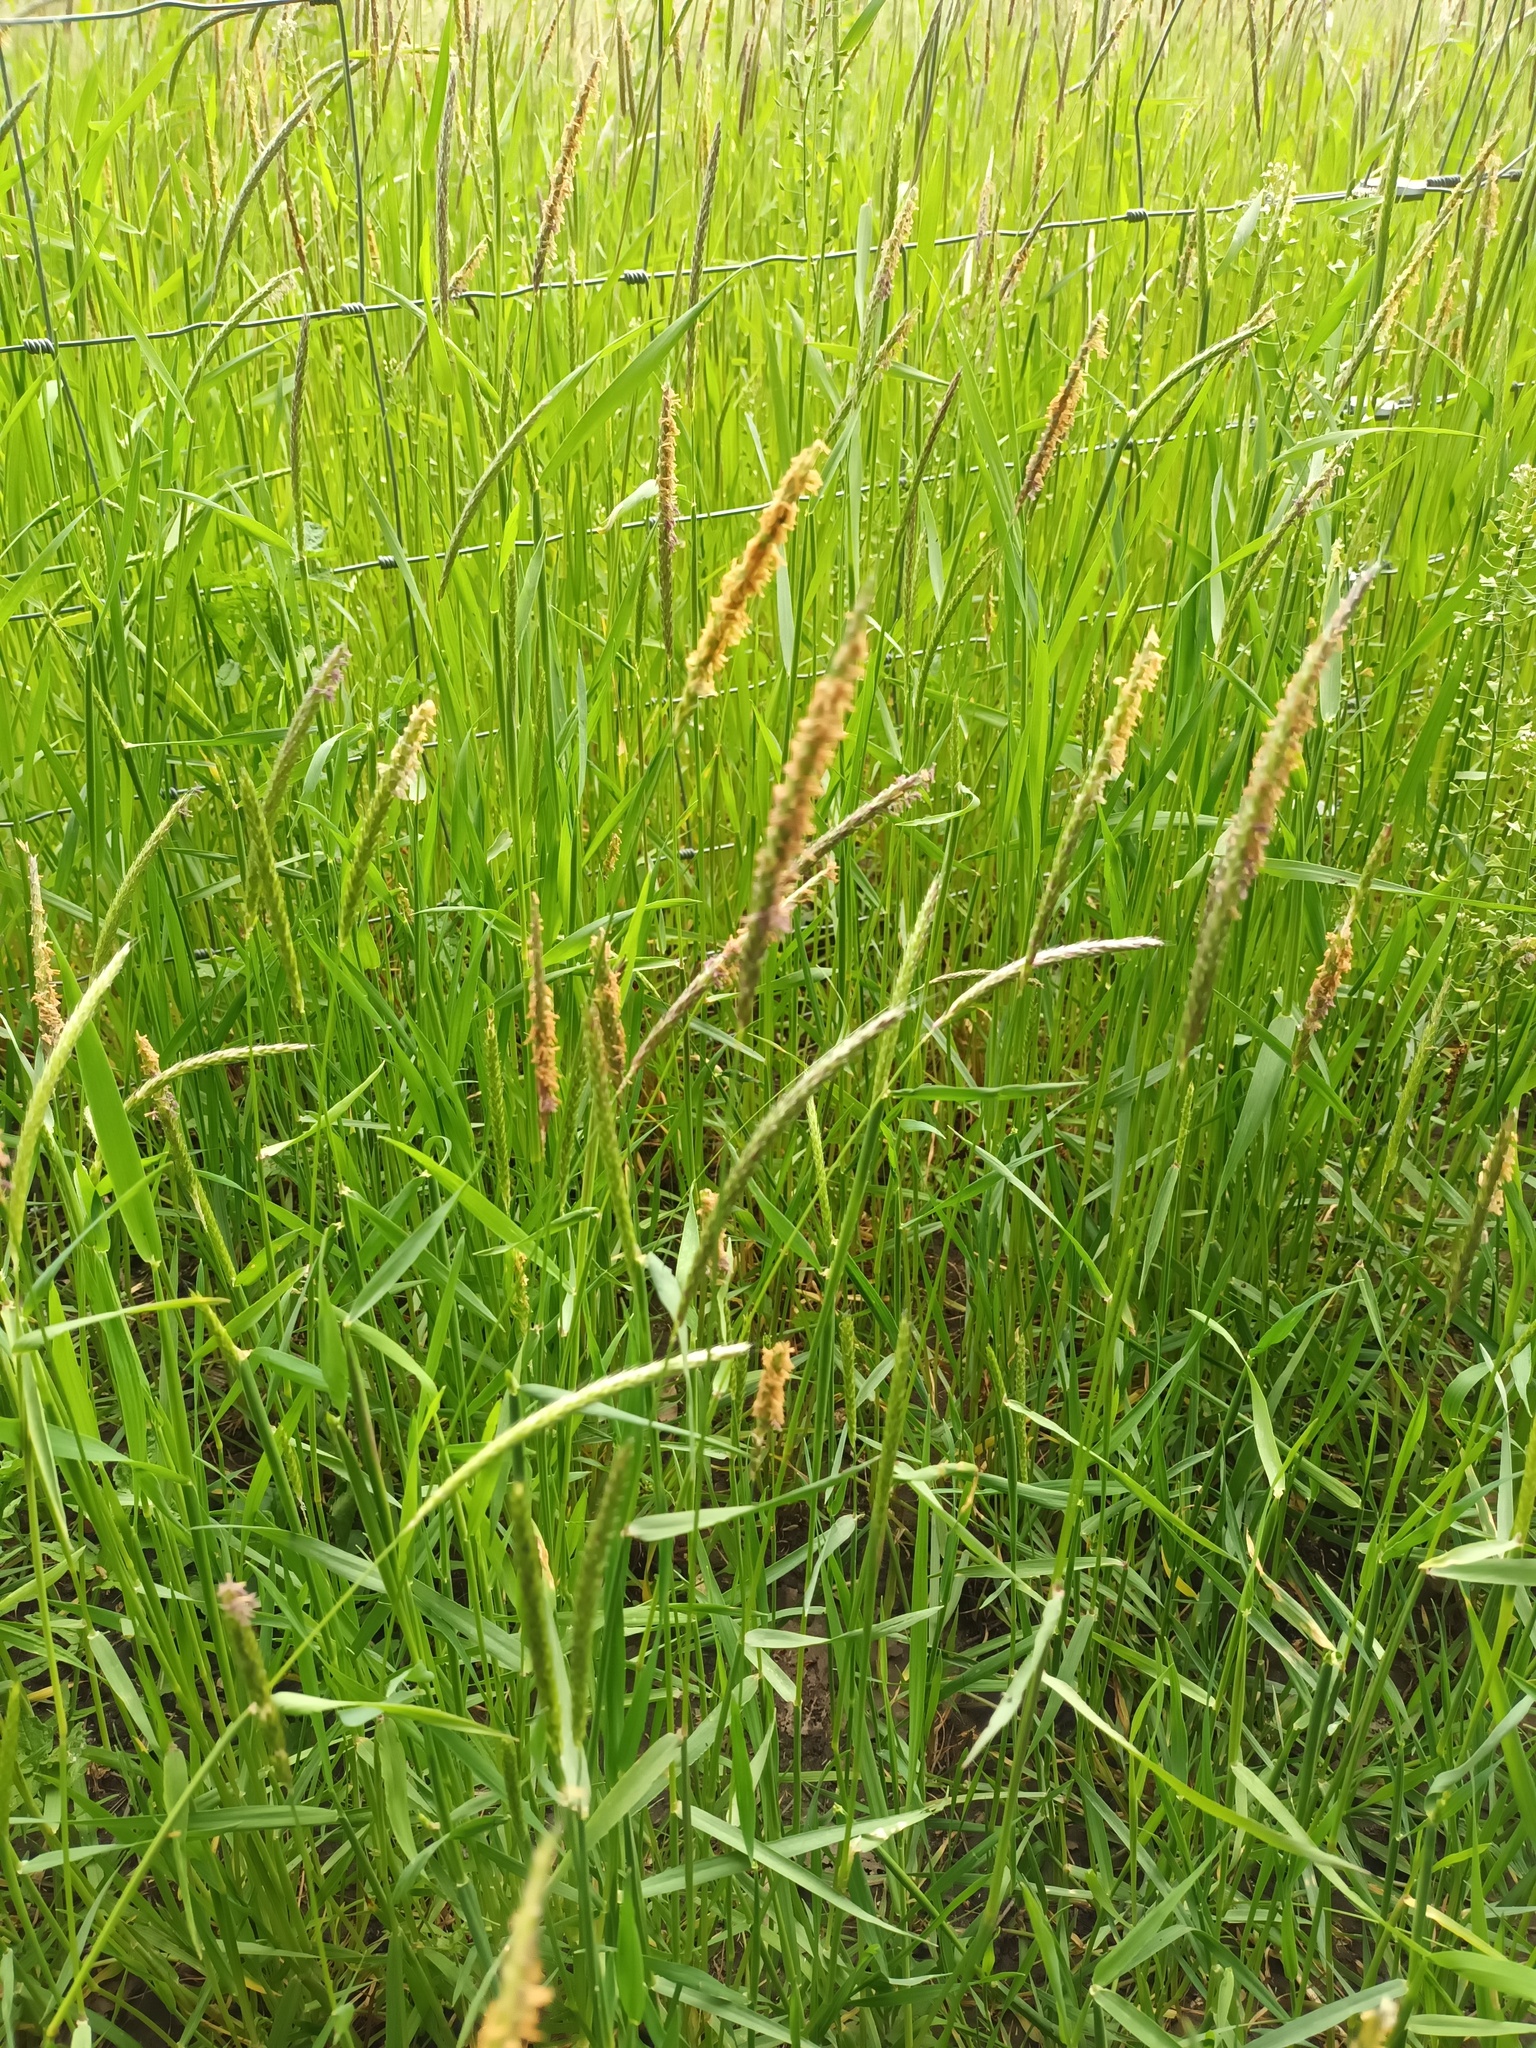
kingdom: Plantae
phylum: Tracheophyta
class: Liliopsida
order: Poales
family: Poaceae
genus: Alopecurus
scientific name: Alopecurus myosuroides
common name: Black-grass
